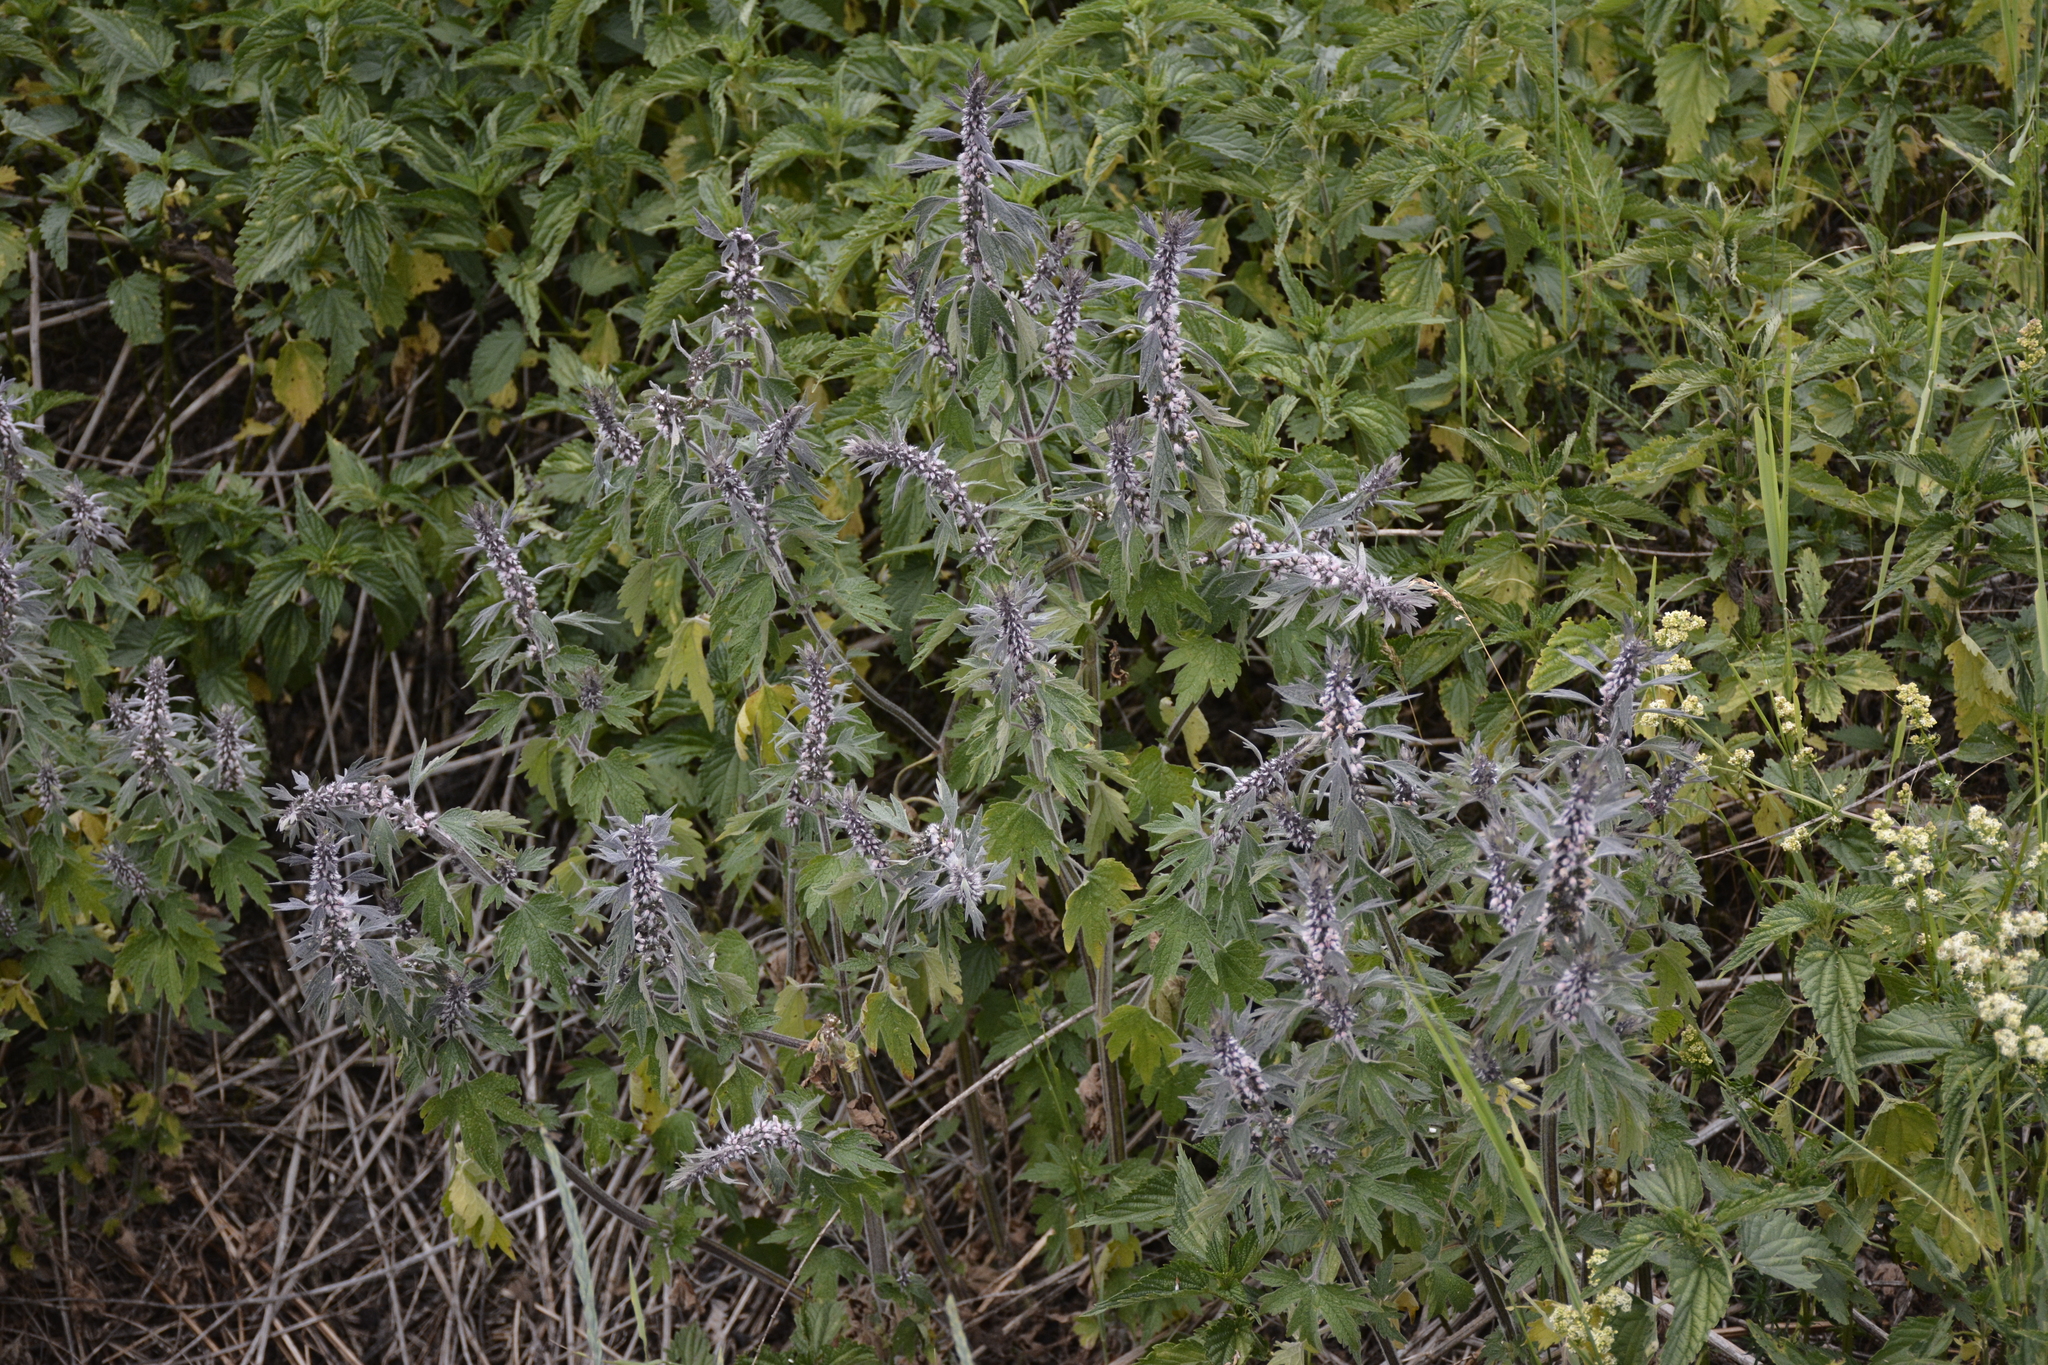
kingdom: Plantae
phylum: Tracheophyta
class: Magnoliopsida
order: Lamiales
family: Lamiaceae
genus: Leonurus
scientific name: Leonurus quinquelobatus
